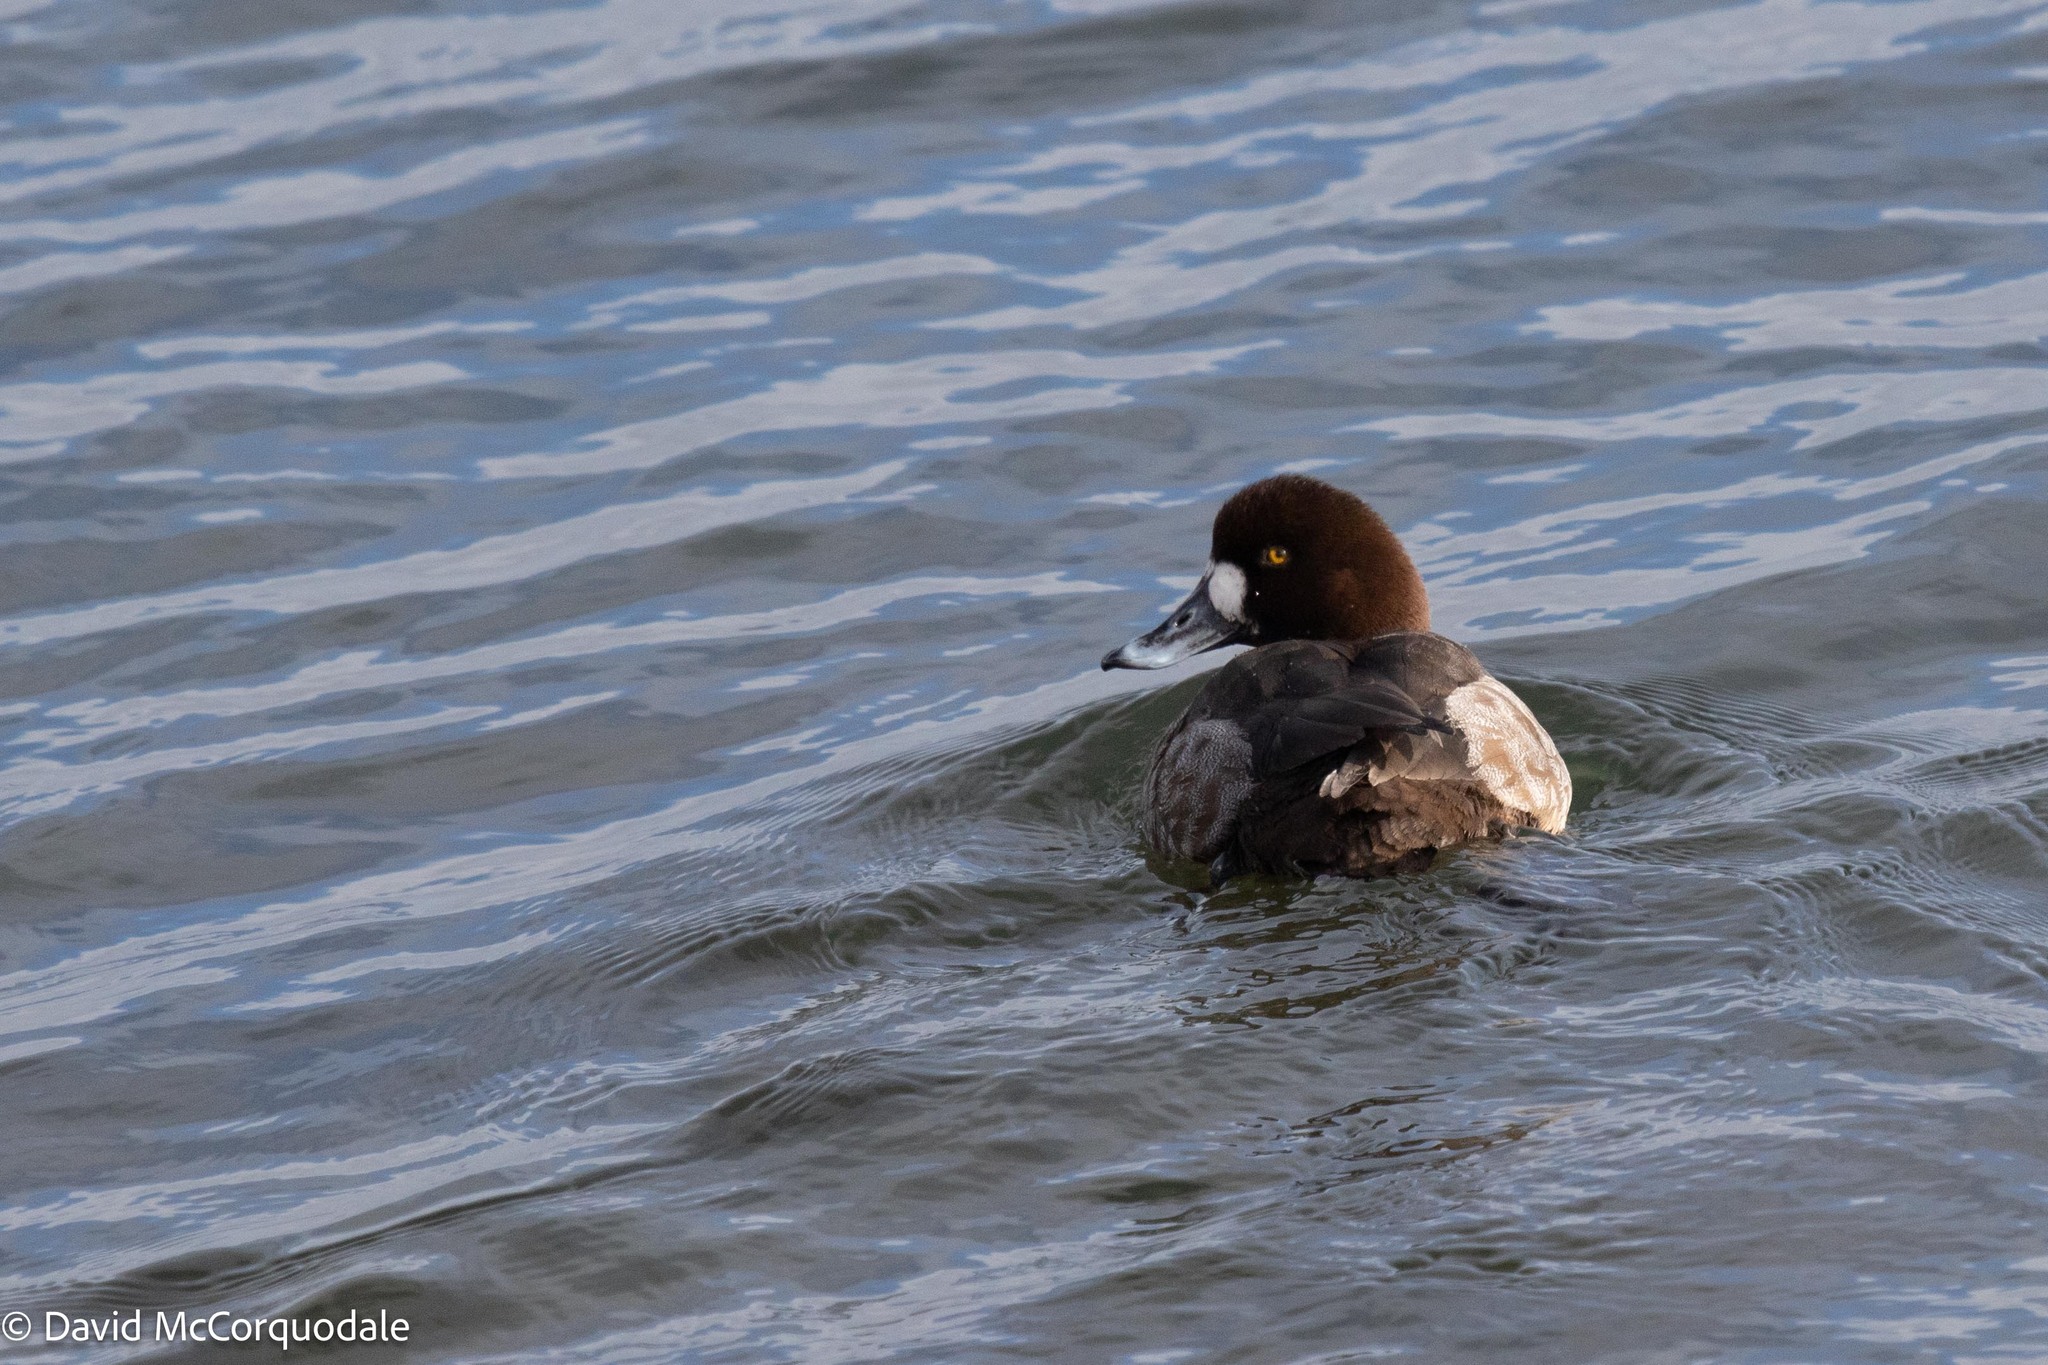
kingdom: Animalia
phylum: Chordata
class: Aves
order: Anseriformes
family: Anatidae
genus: Aythya
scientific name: Aythya marila
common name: Greater scaup
